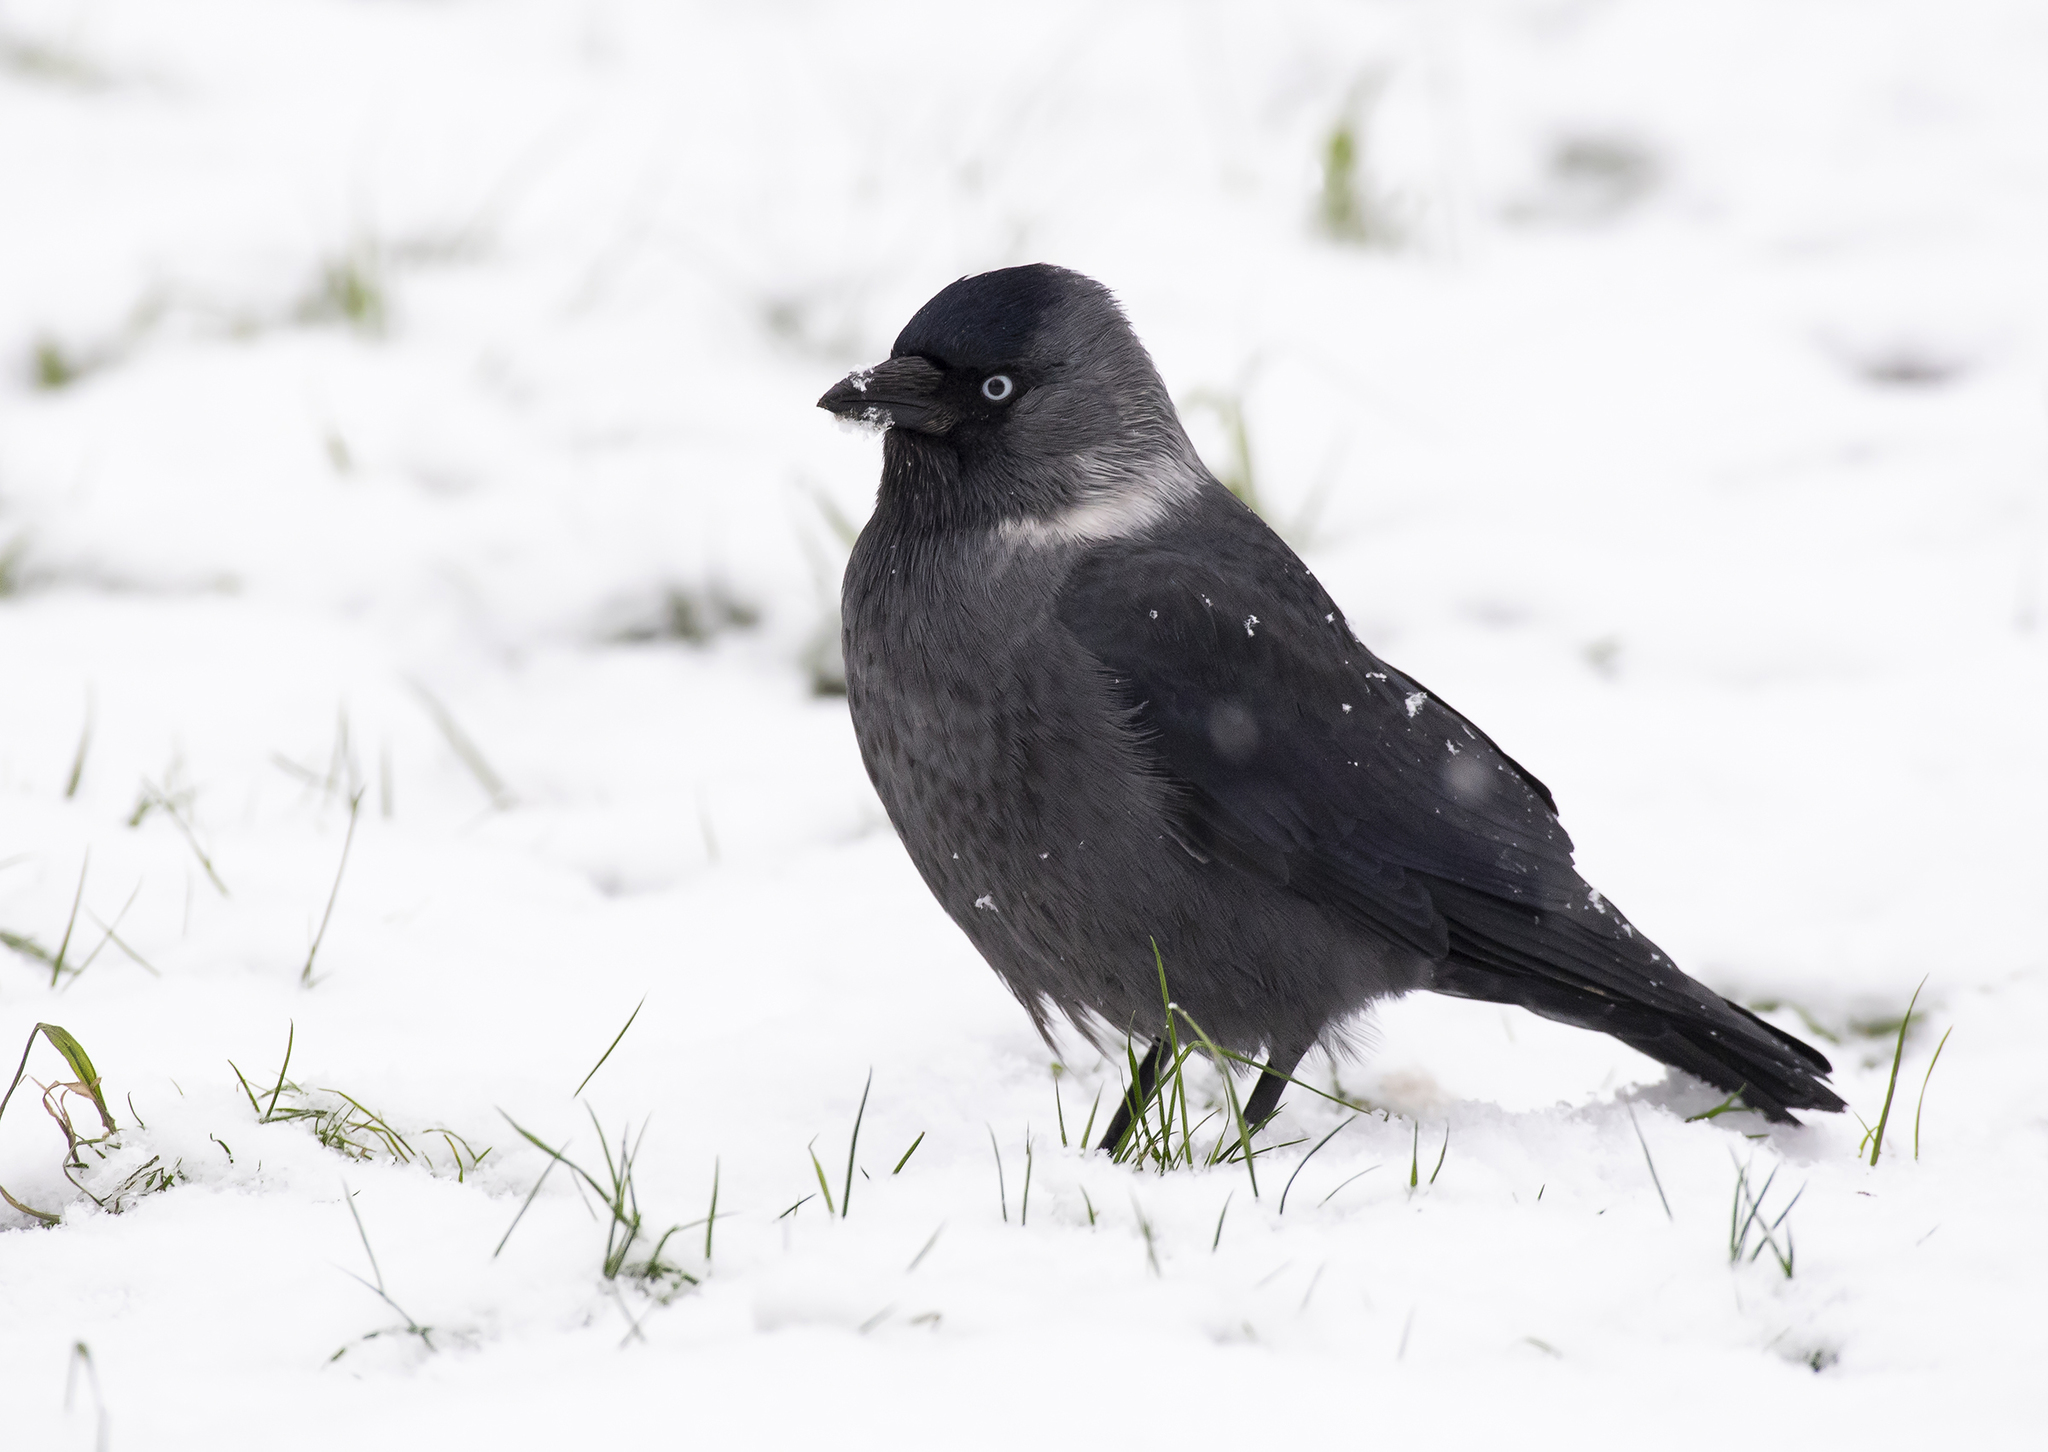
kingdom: Animalia
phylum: Chordata
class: Aves
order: Passeriformes
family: Corvidae
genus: Coloeus
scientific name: Coloeus monedula
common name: Western jackdaw
